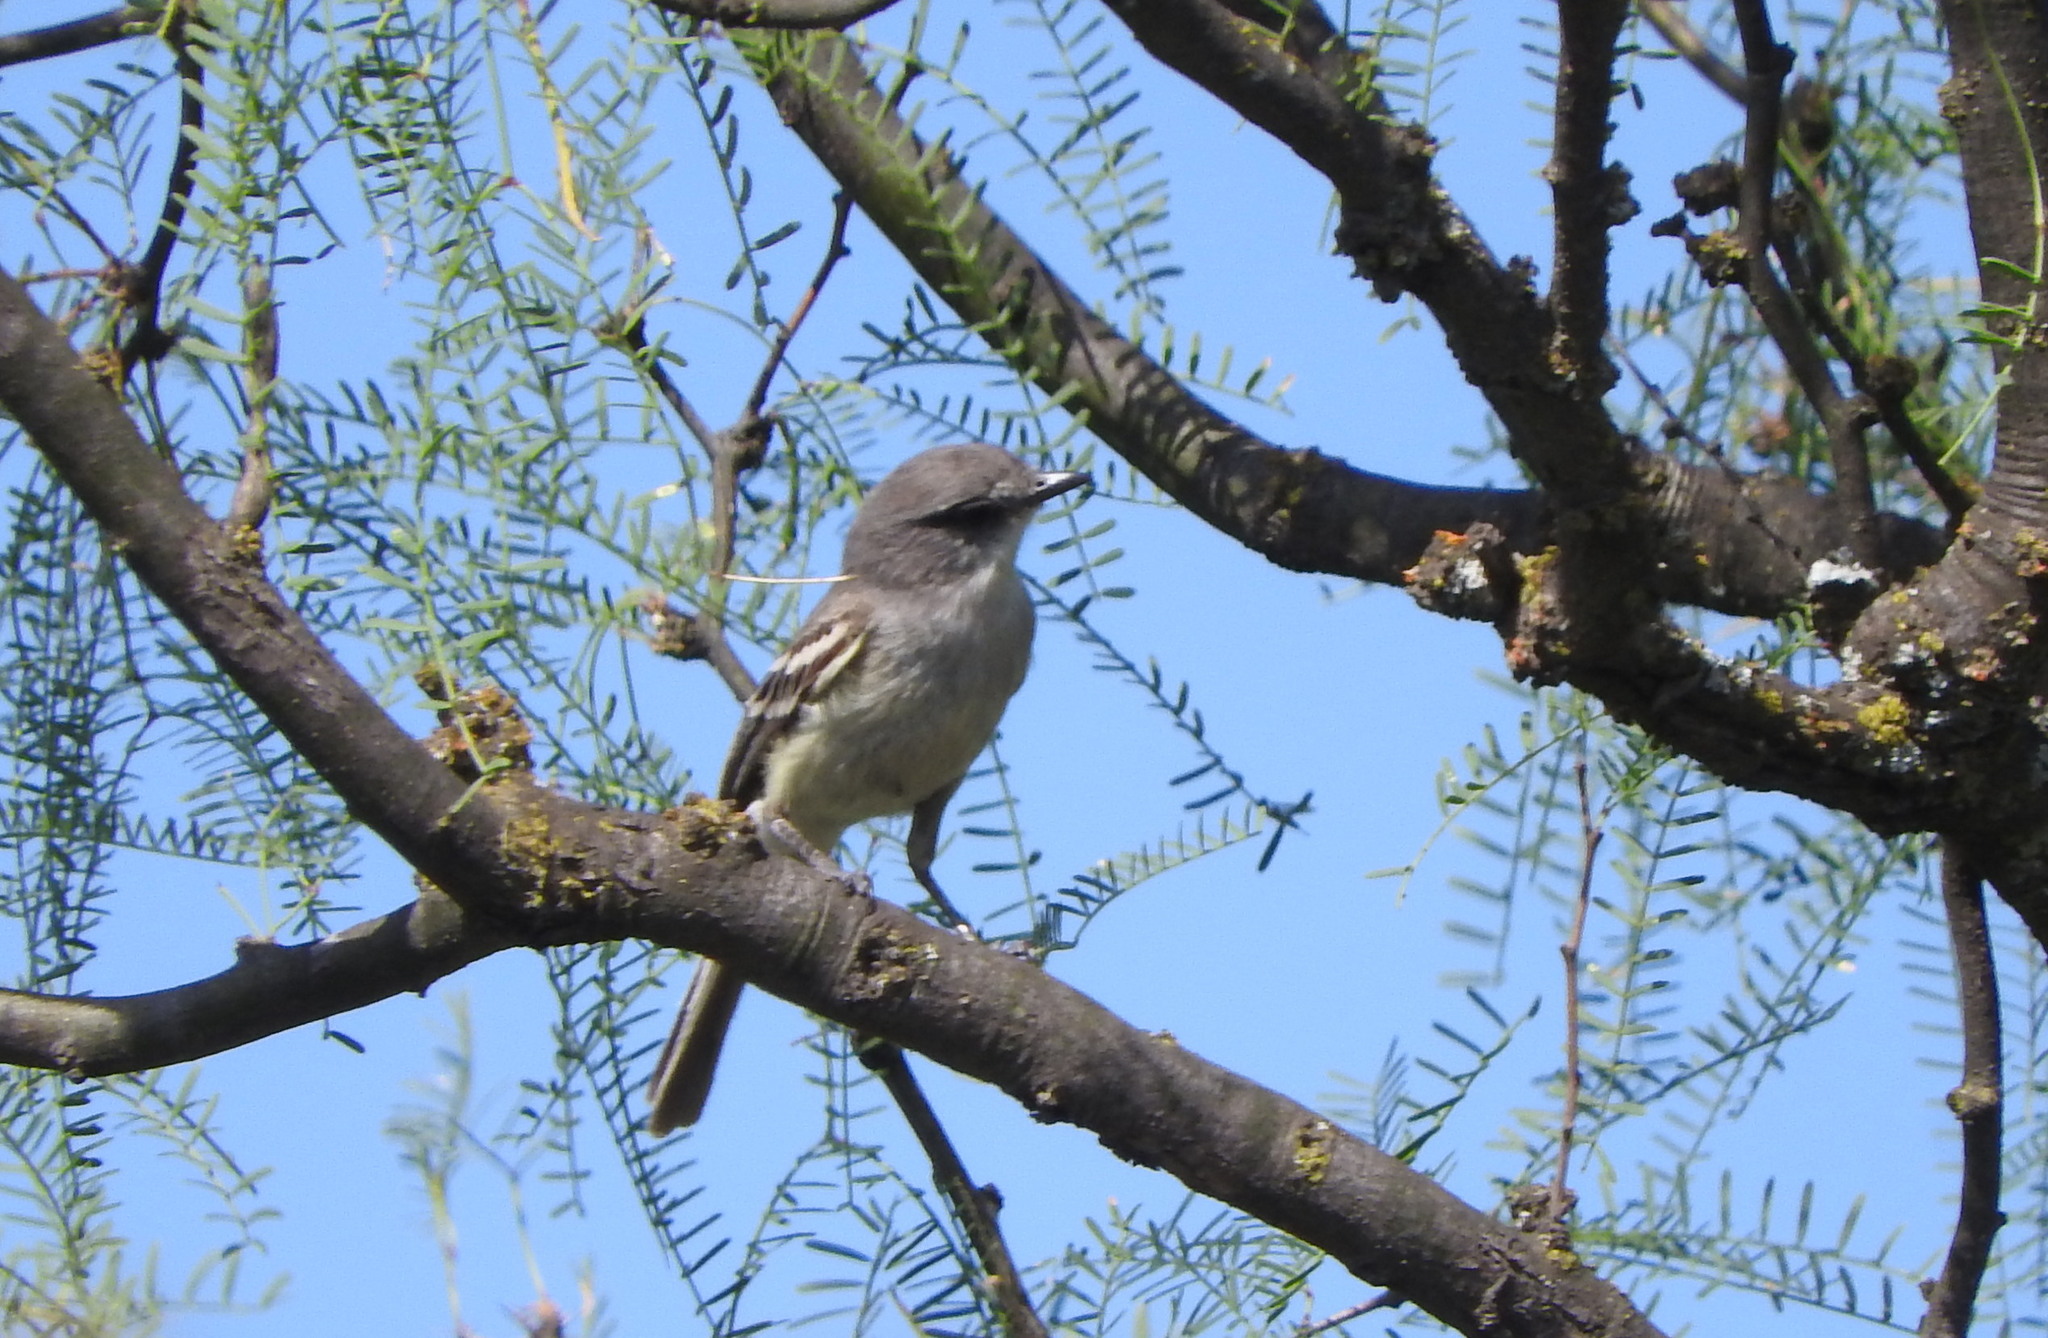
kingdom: Animalia
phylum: Chordata
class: Aves
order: Passeriformes
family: Tyrannidae
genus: Suiriri
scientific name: Suiriri suiriri
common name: Suiriri flycatcher
